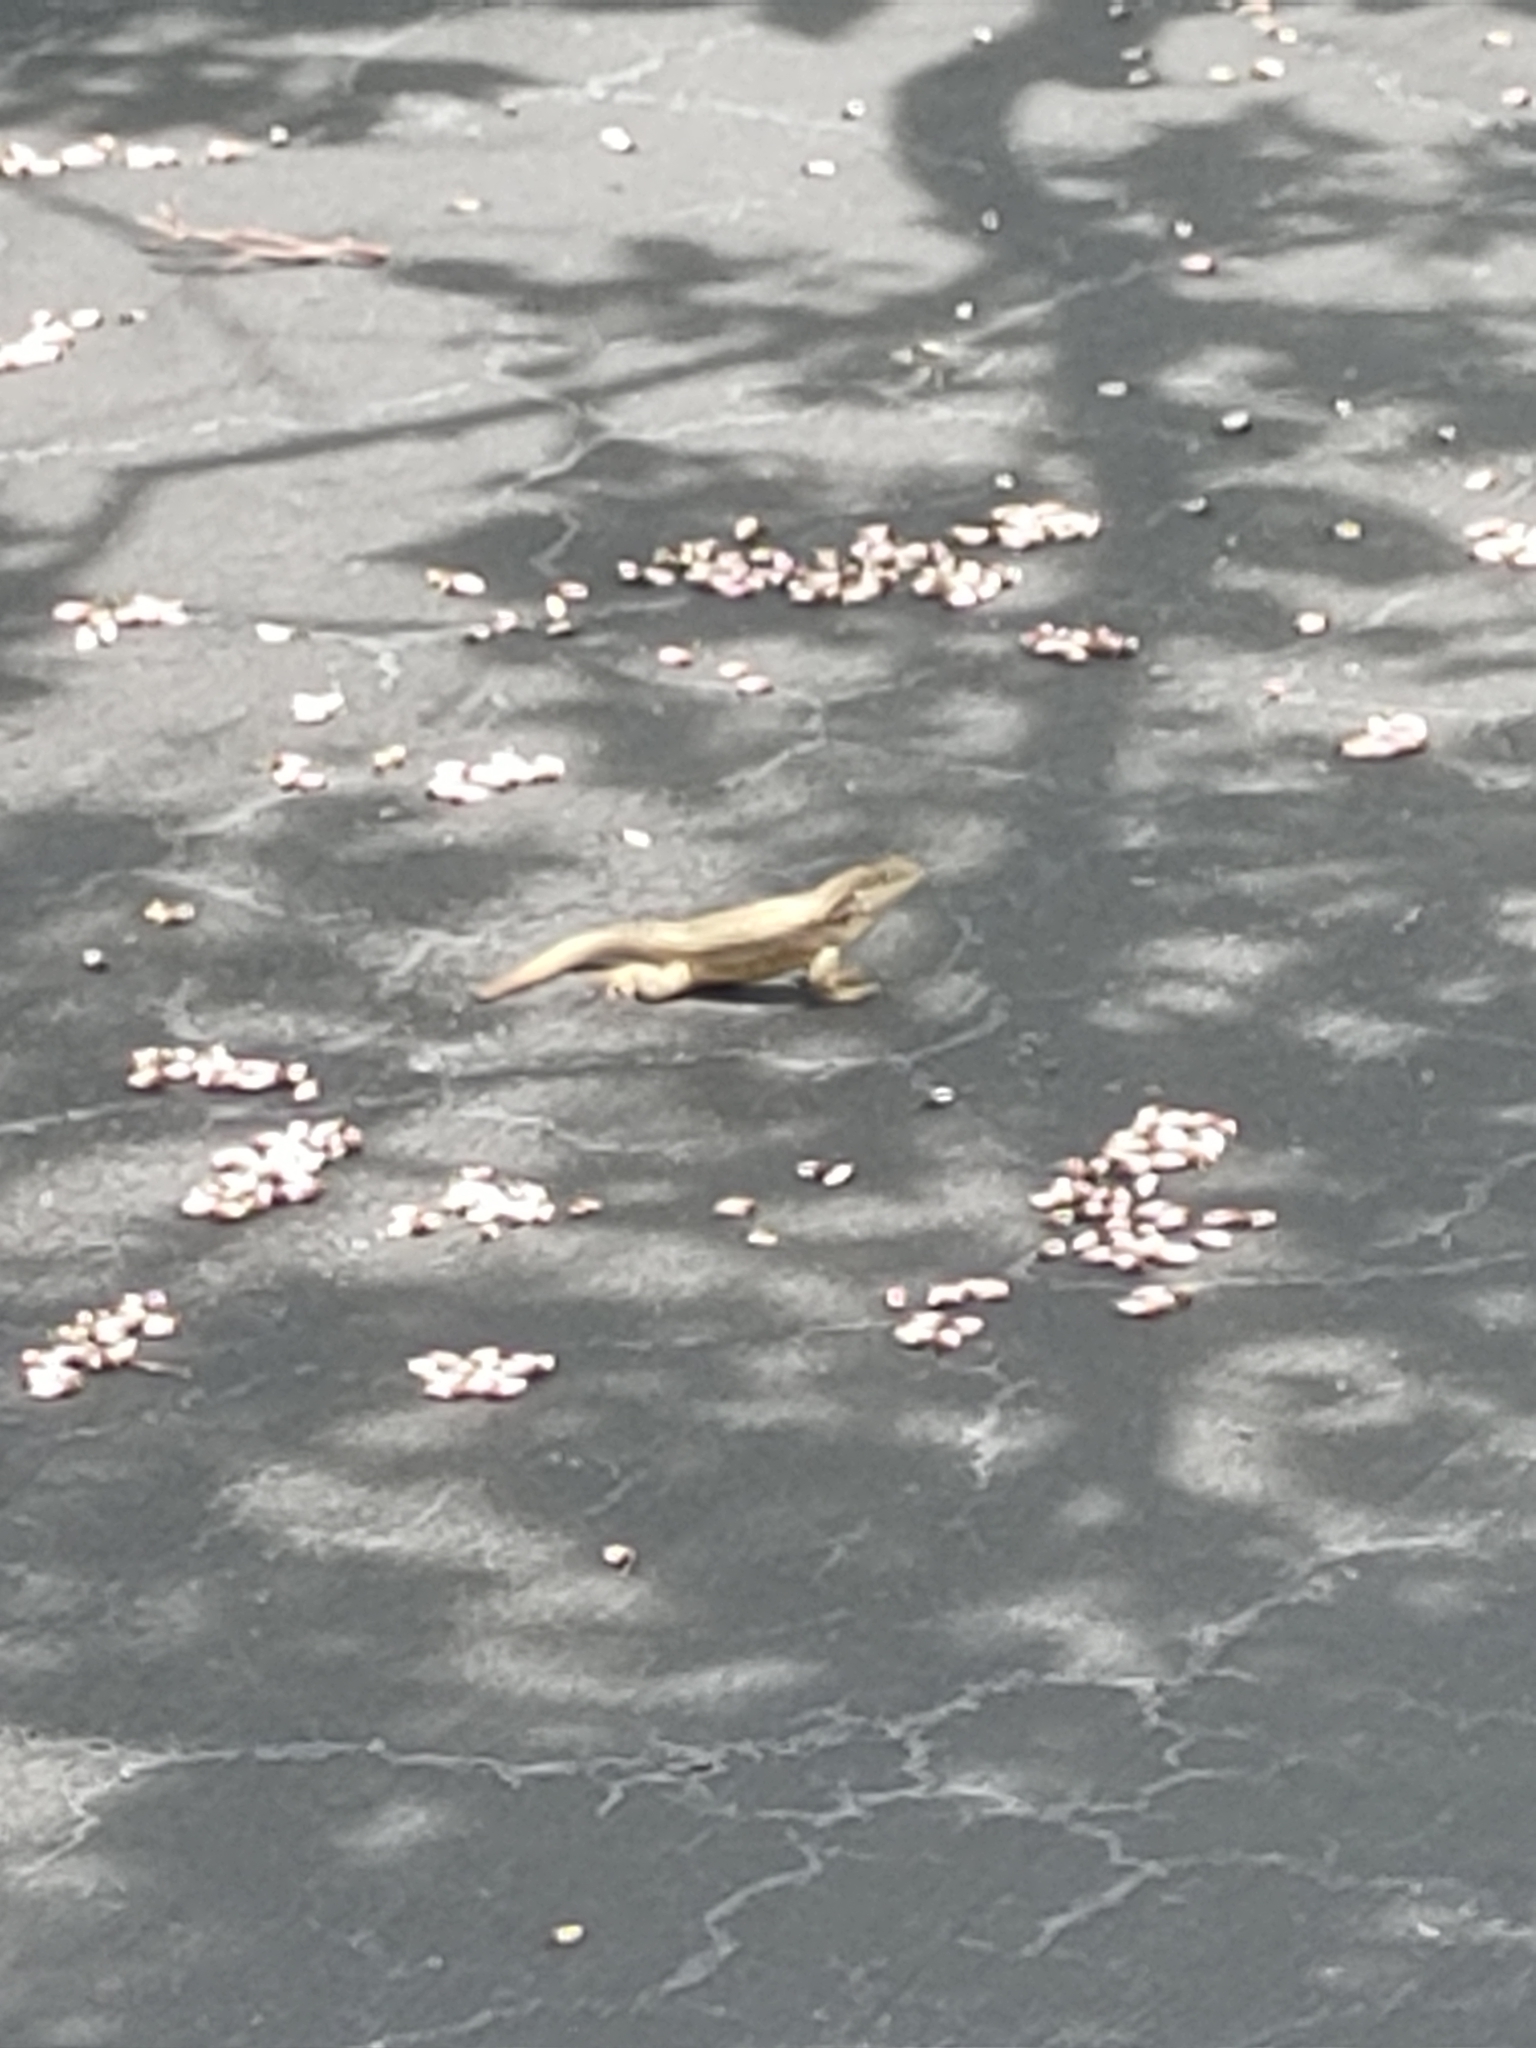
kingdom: Animalia
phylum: Chordata
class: Squamata
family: Leiocephalidae
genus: Leiocephalus
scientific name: Leiocephalus carinatus
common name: Northern curly-tailed lizard
